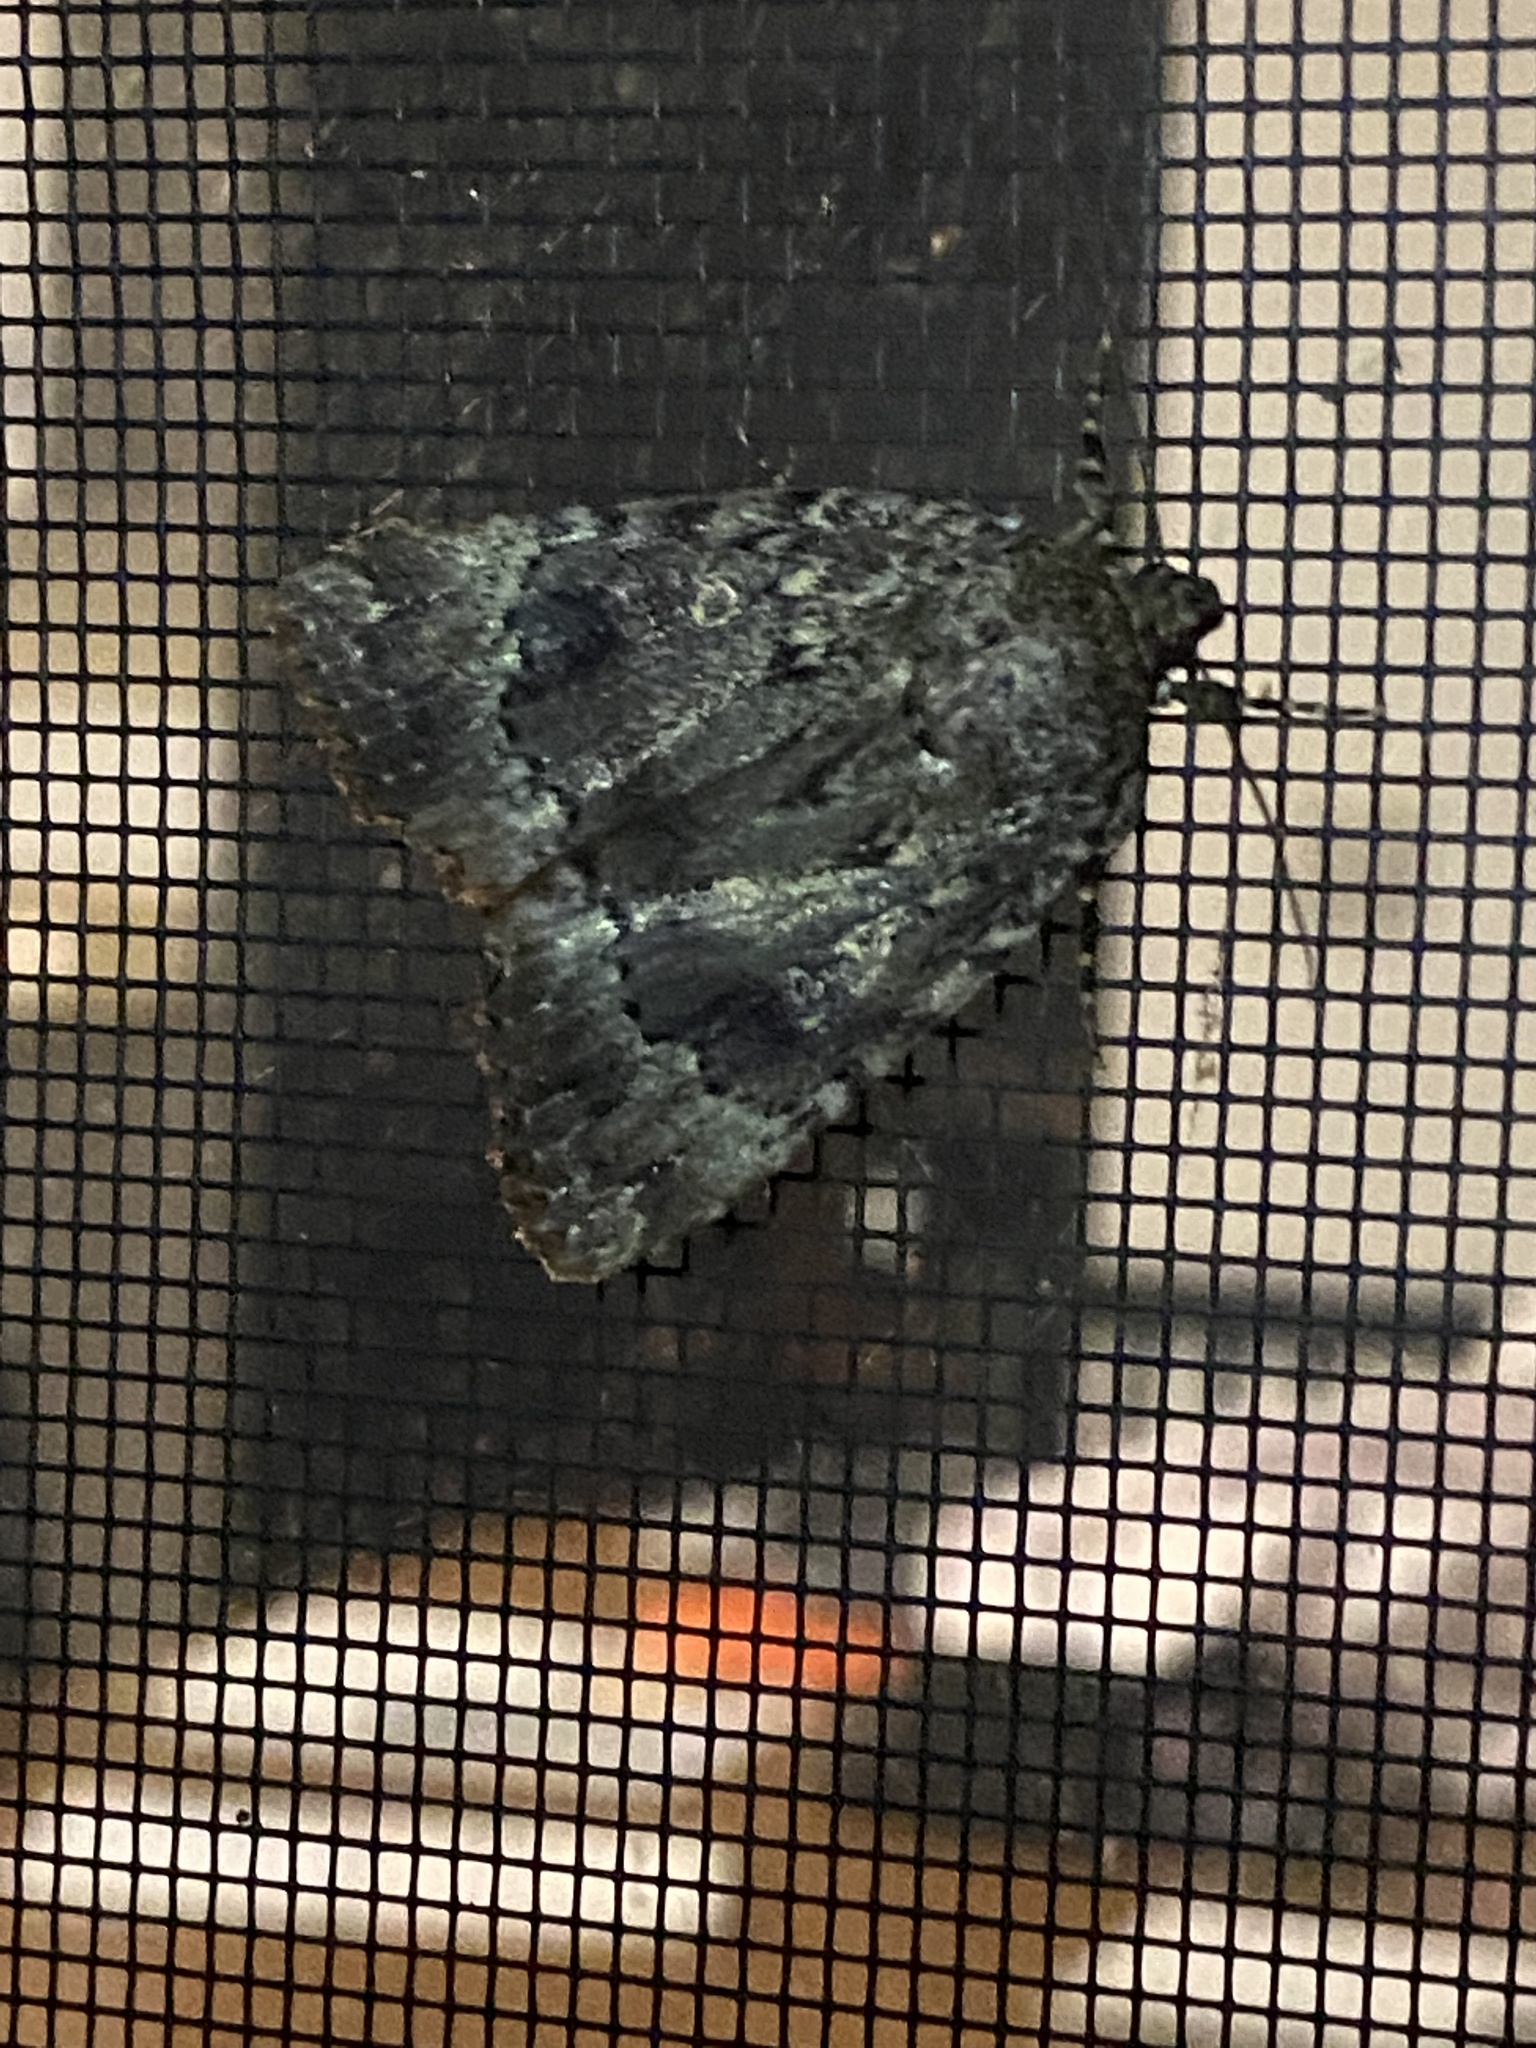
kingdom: Animalia
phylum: Arthropoda
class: Insecta
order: Lepidoptera
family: Noctuidae
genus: Amphipyra
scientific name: Amphipyra pyramidoides
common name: American copper underwing
